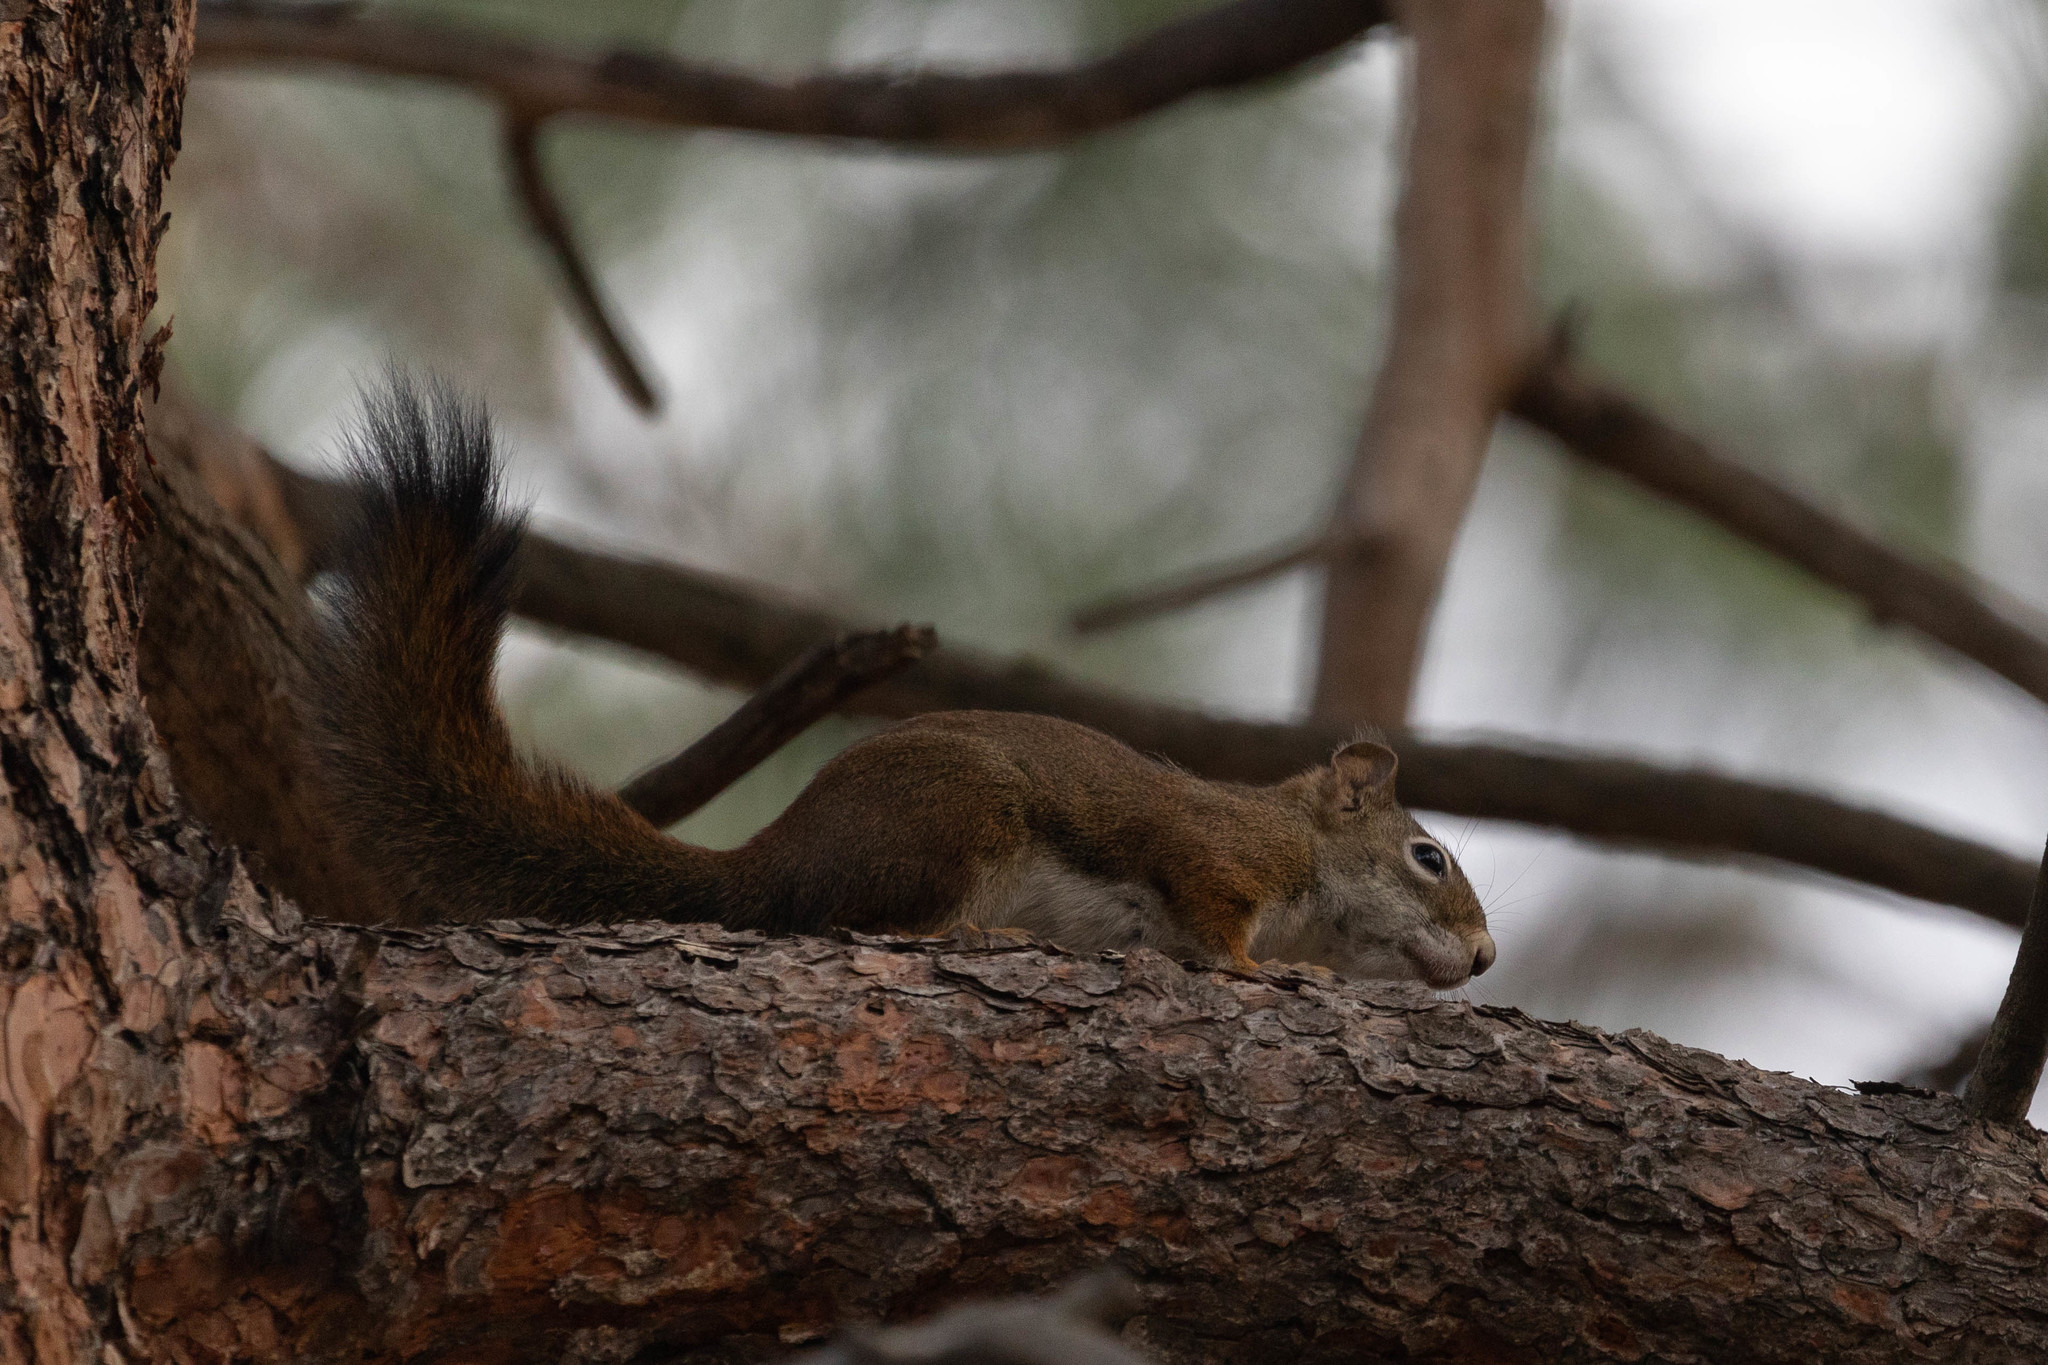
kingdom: Animalia
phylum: Chordata
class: Mammalia
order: Rodentia
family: Sciuridae
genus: Tamiasciurus
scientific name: Tamiasciurus hudsonicus
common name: Red squirrel
